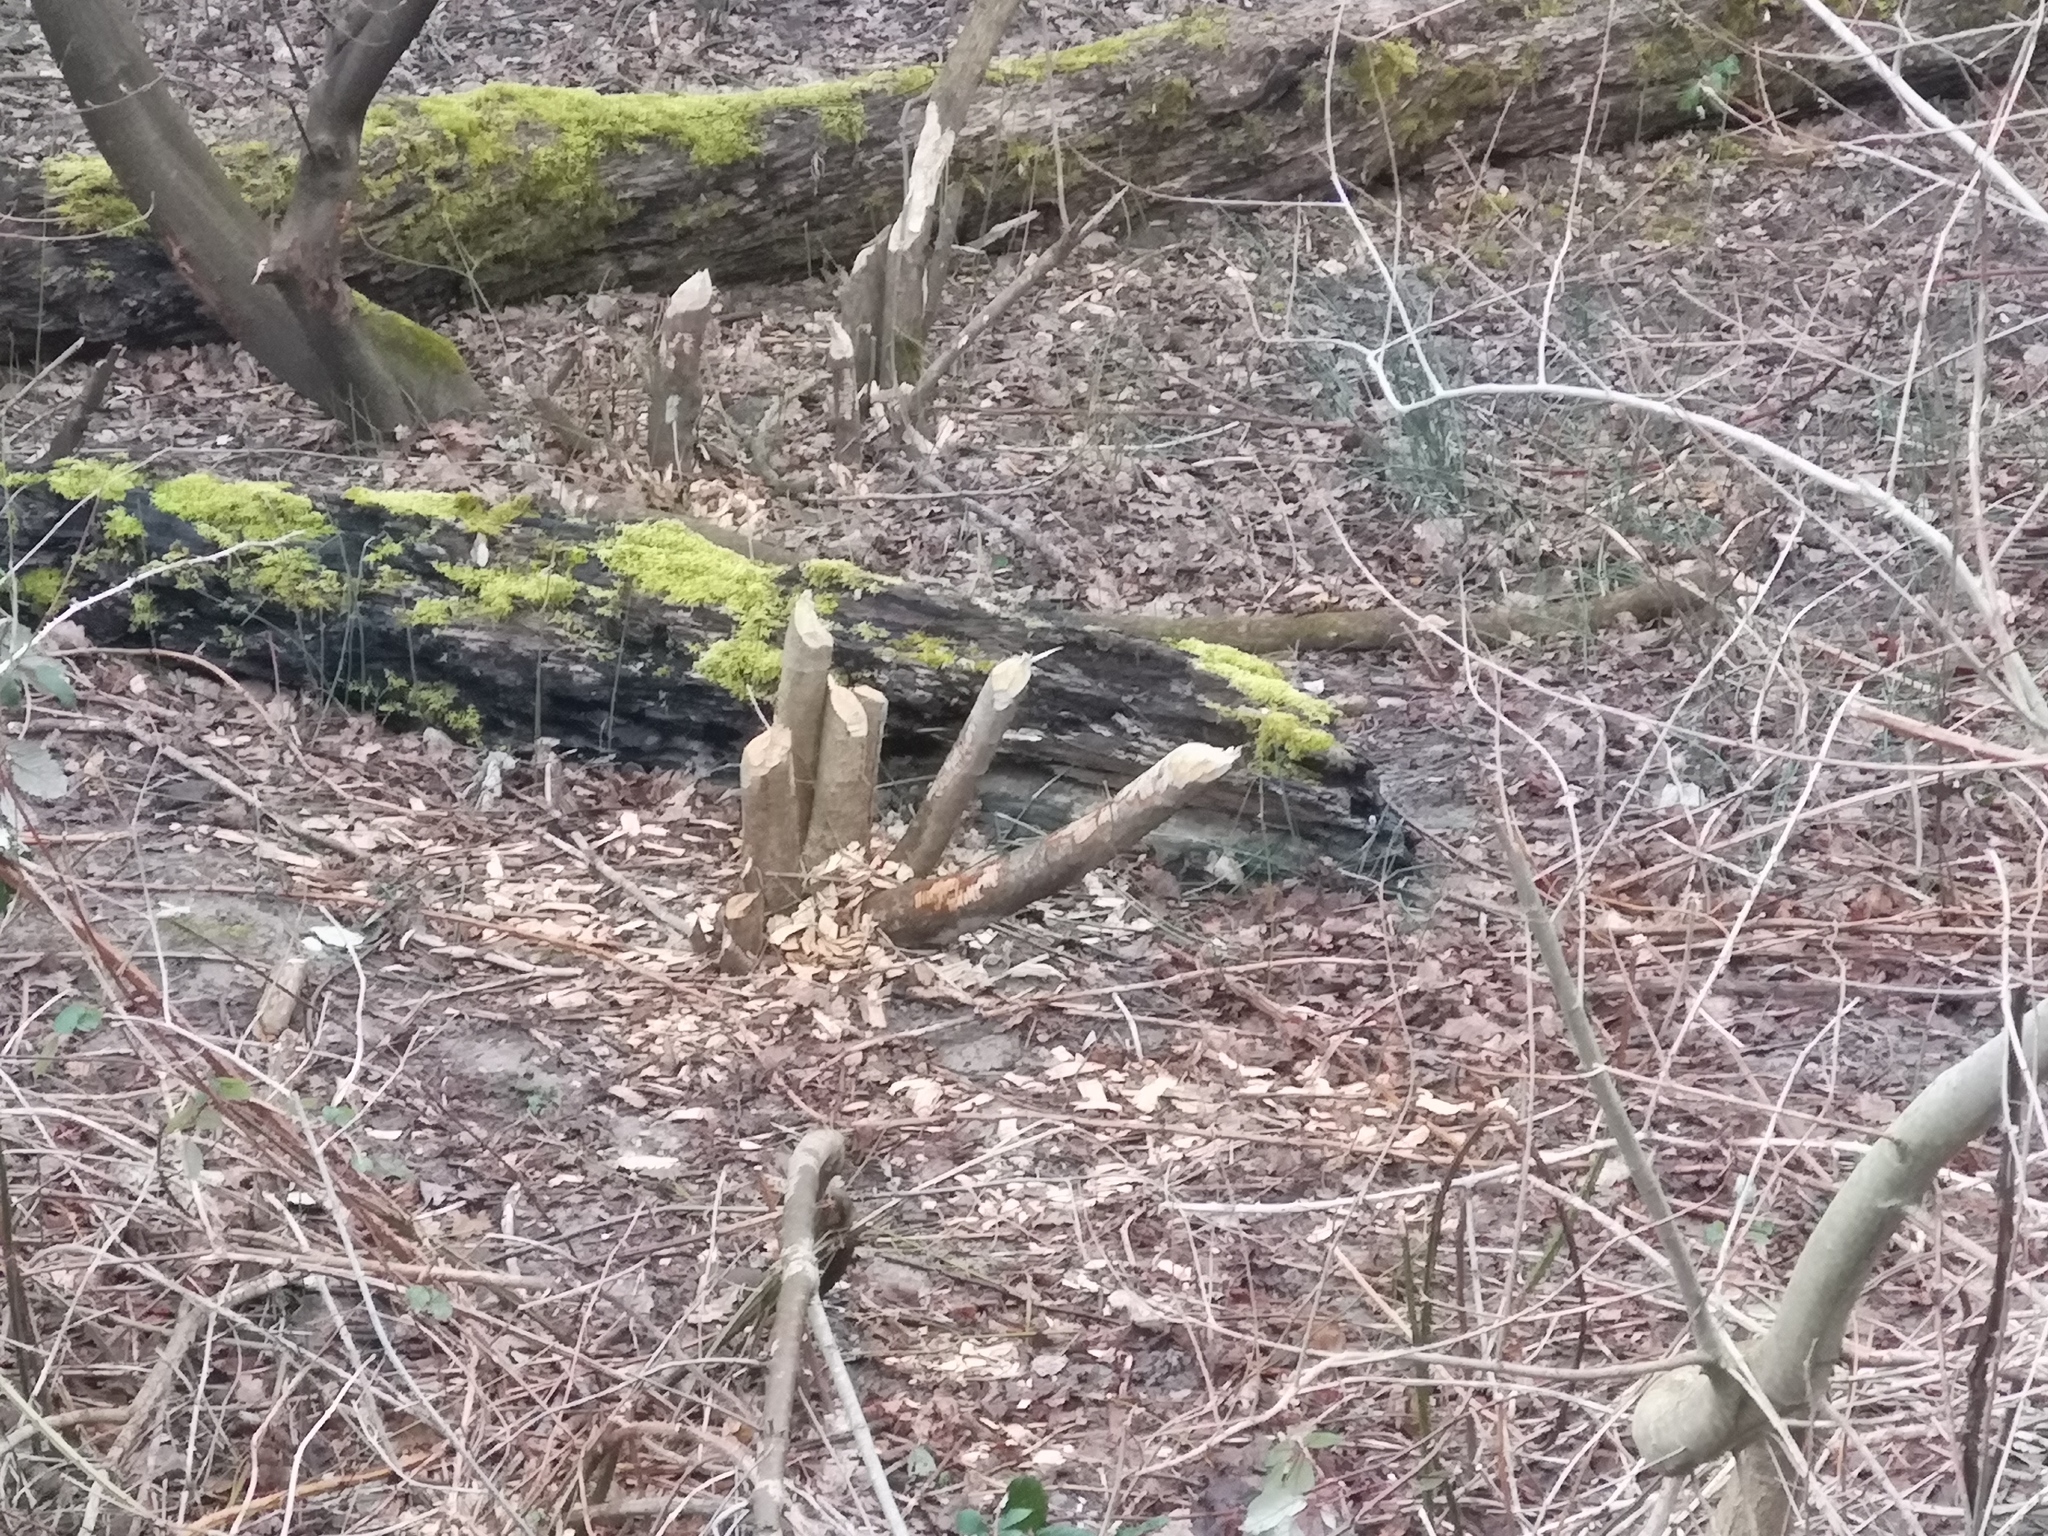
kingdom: Animalia
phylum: Chordata
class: Mammalia
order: Rodentia
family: Castoridae
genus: Castor
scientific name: Castor fiber
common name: Eurasian beaver
